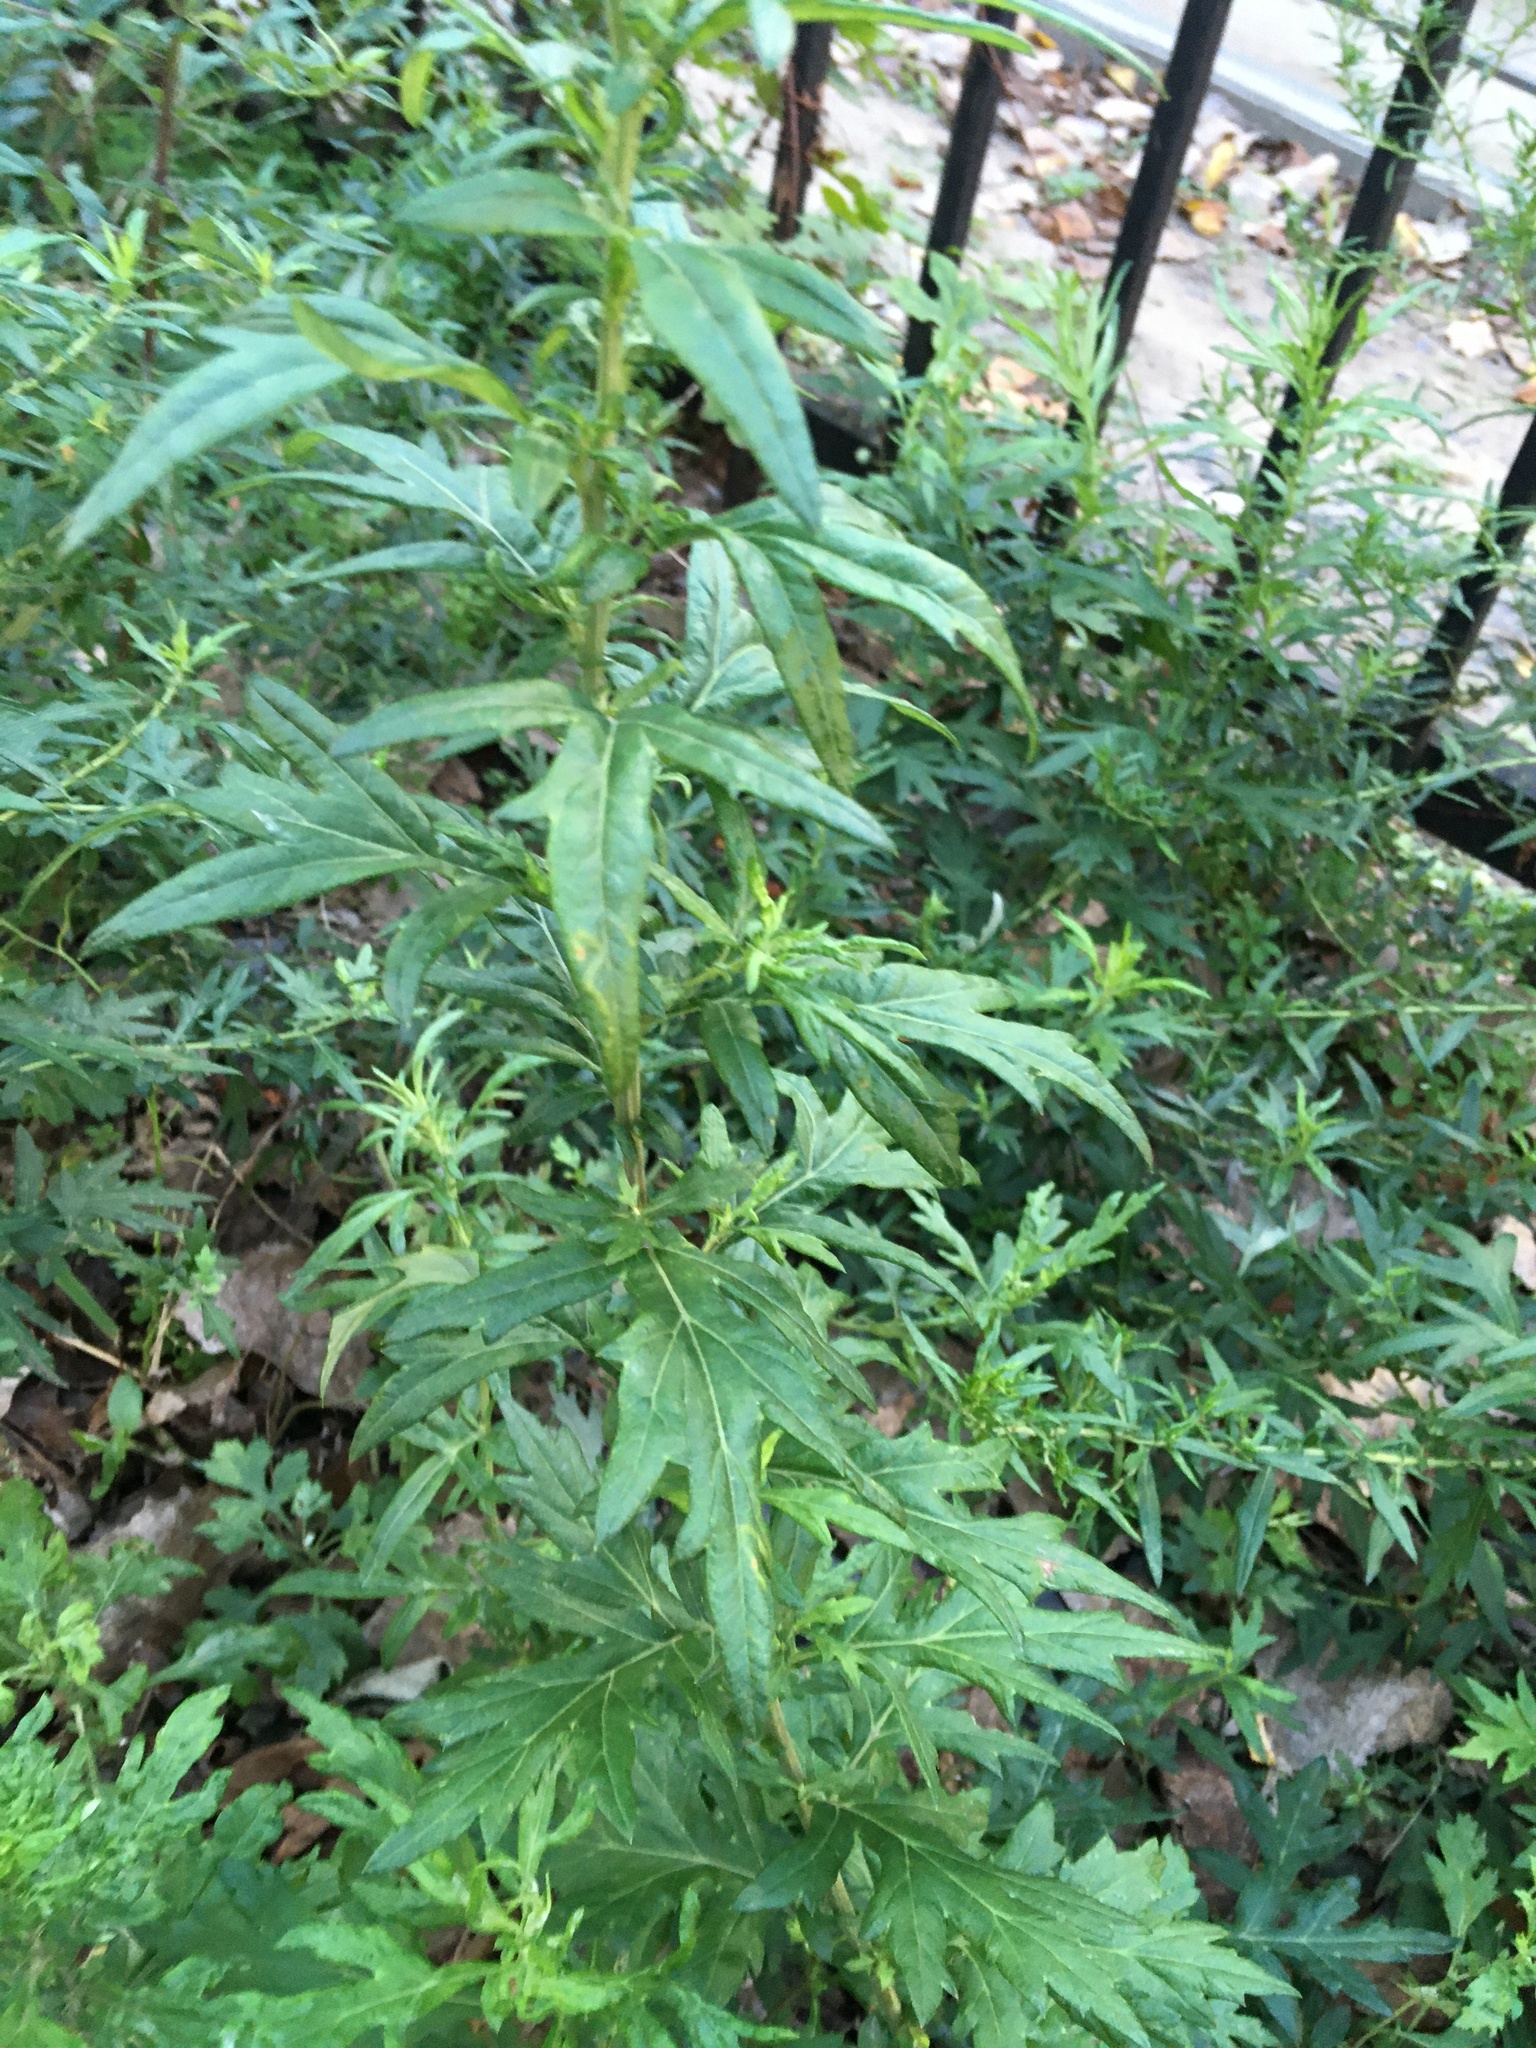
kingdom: Plantae
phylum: Tracheophyta
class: Magnoliopsida
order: Asterales
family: Asteraceae
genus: Artemisia
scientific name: Artemisia vulgaris
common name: Mugwort
